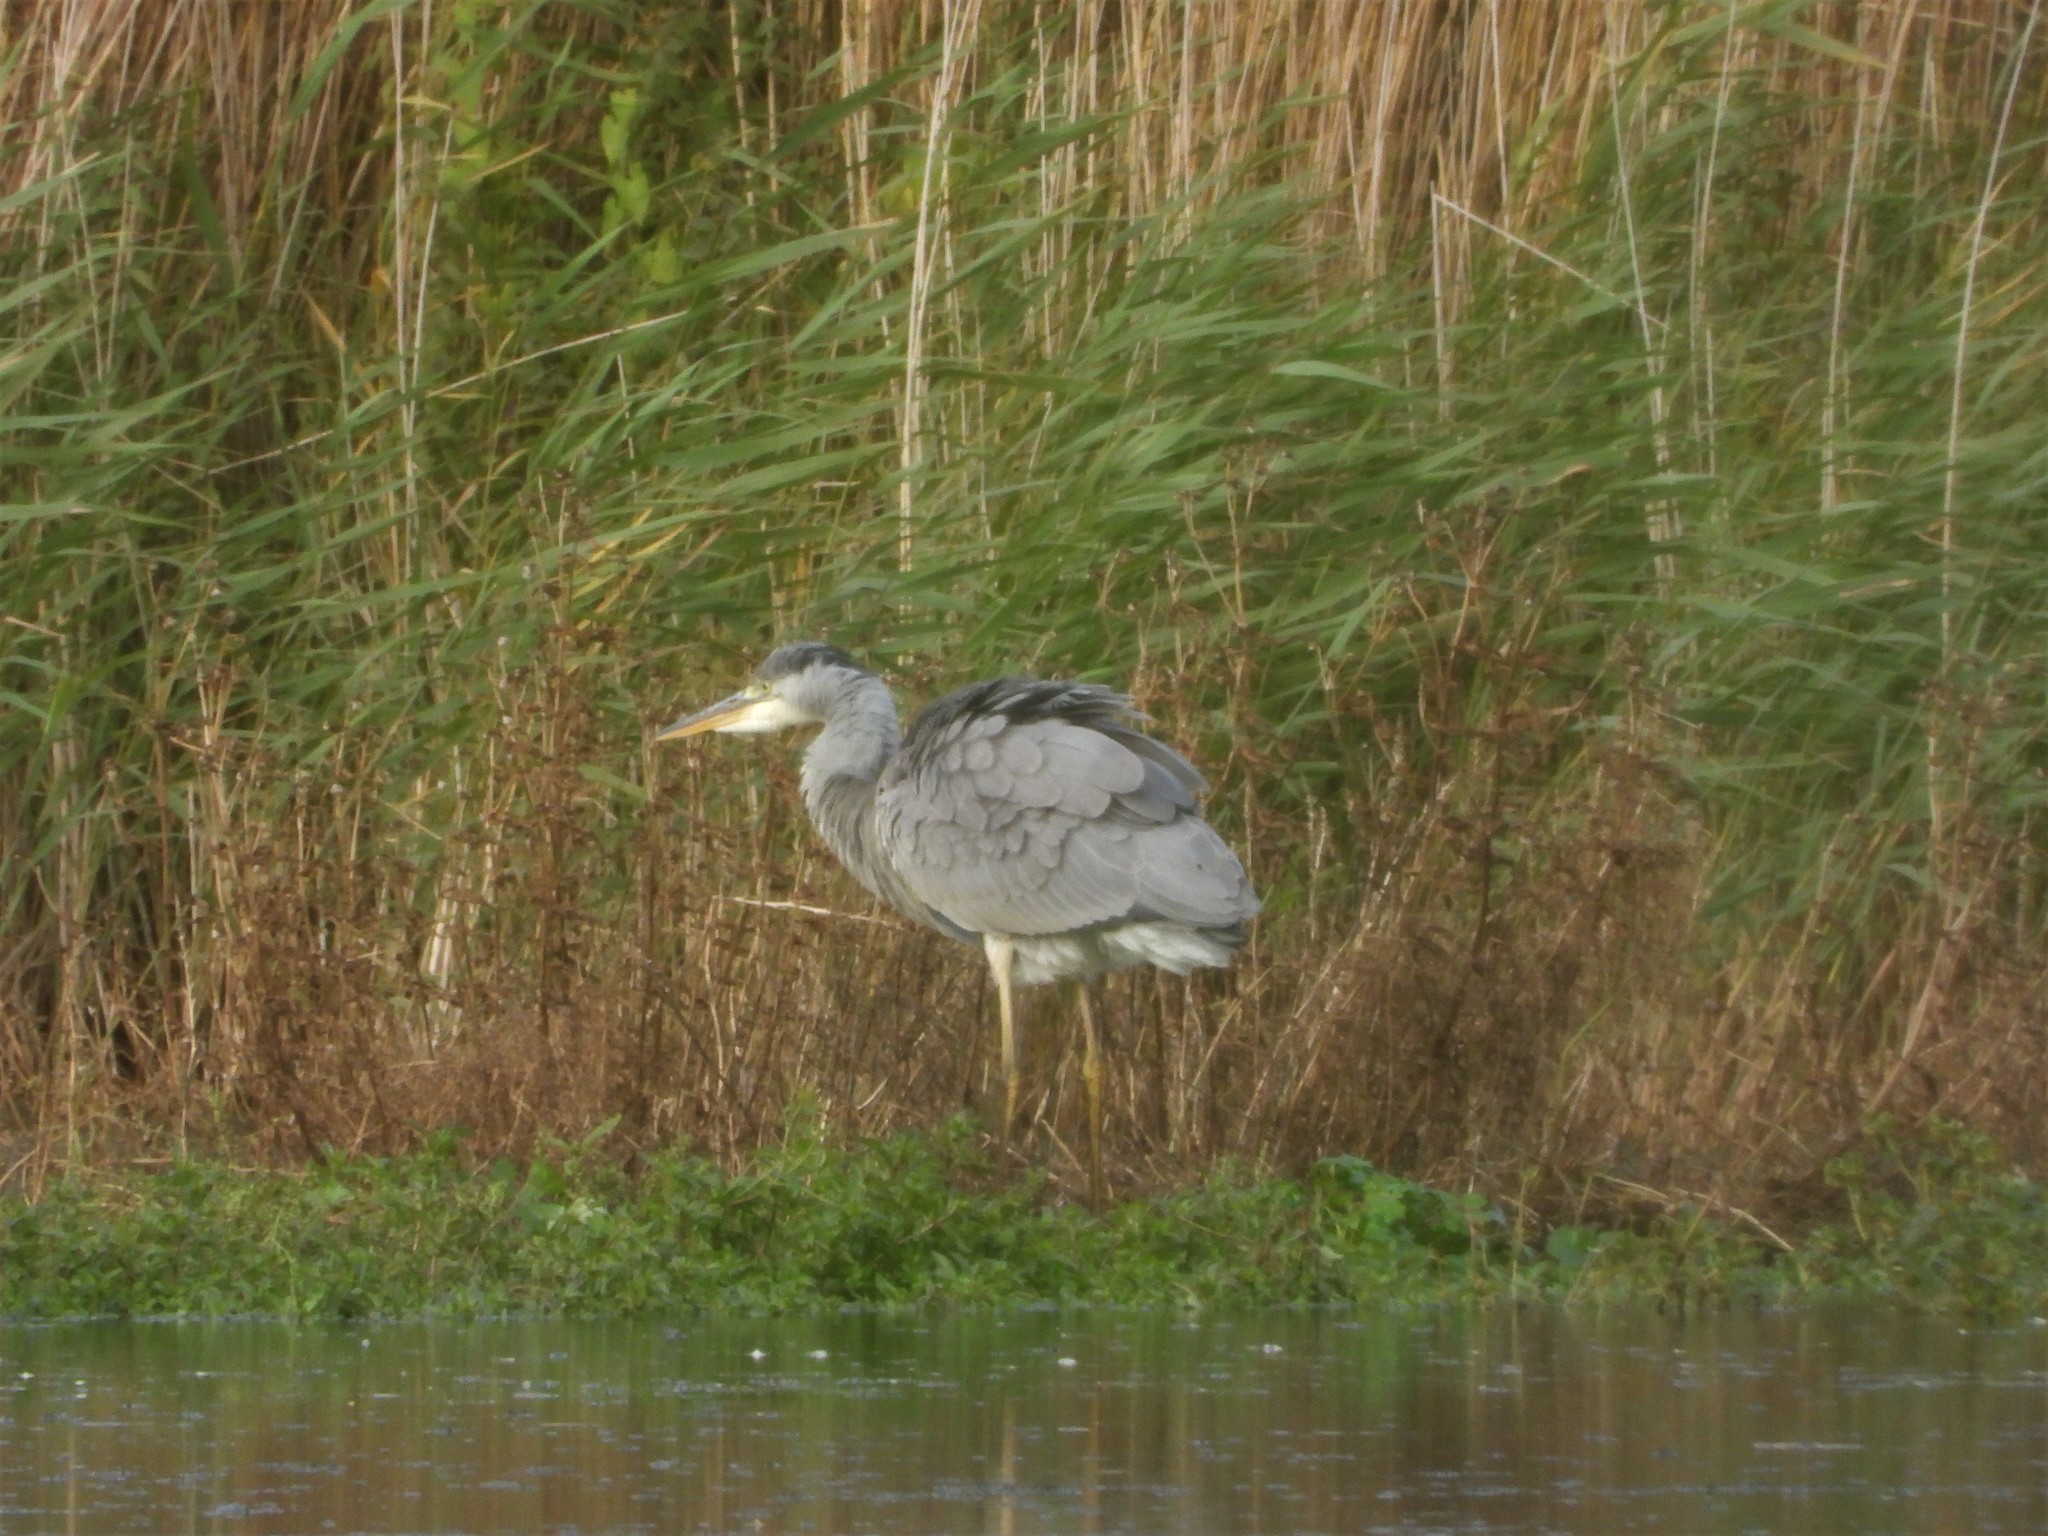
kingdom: Animalia
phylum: Chordata
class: Aves
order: Pelecaniformes
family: Ardeidae
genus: Ardea
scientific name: Ardea cinerea
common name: Grey heron
